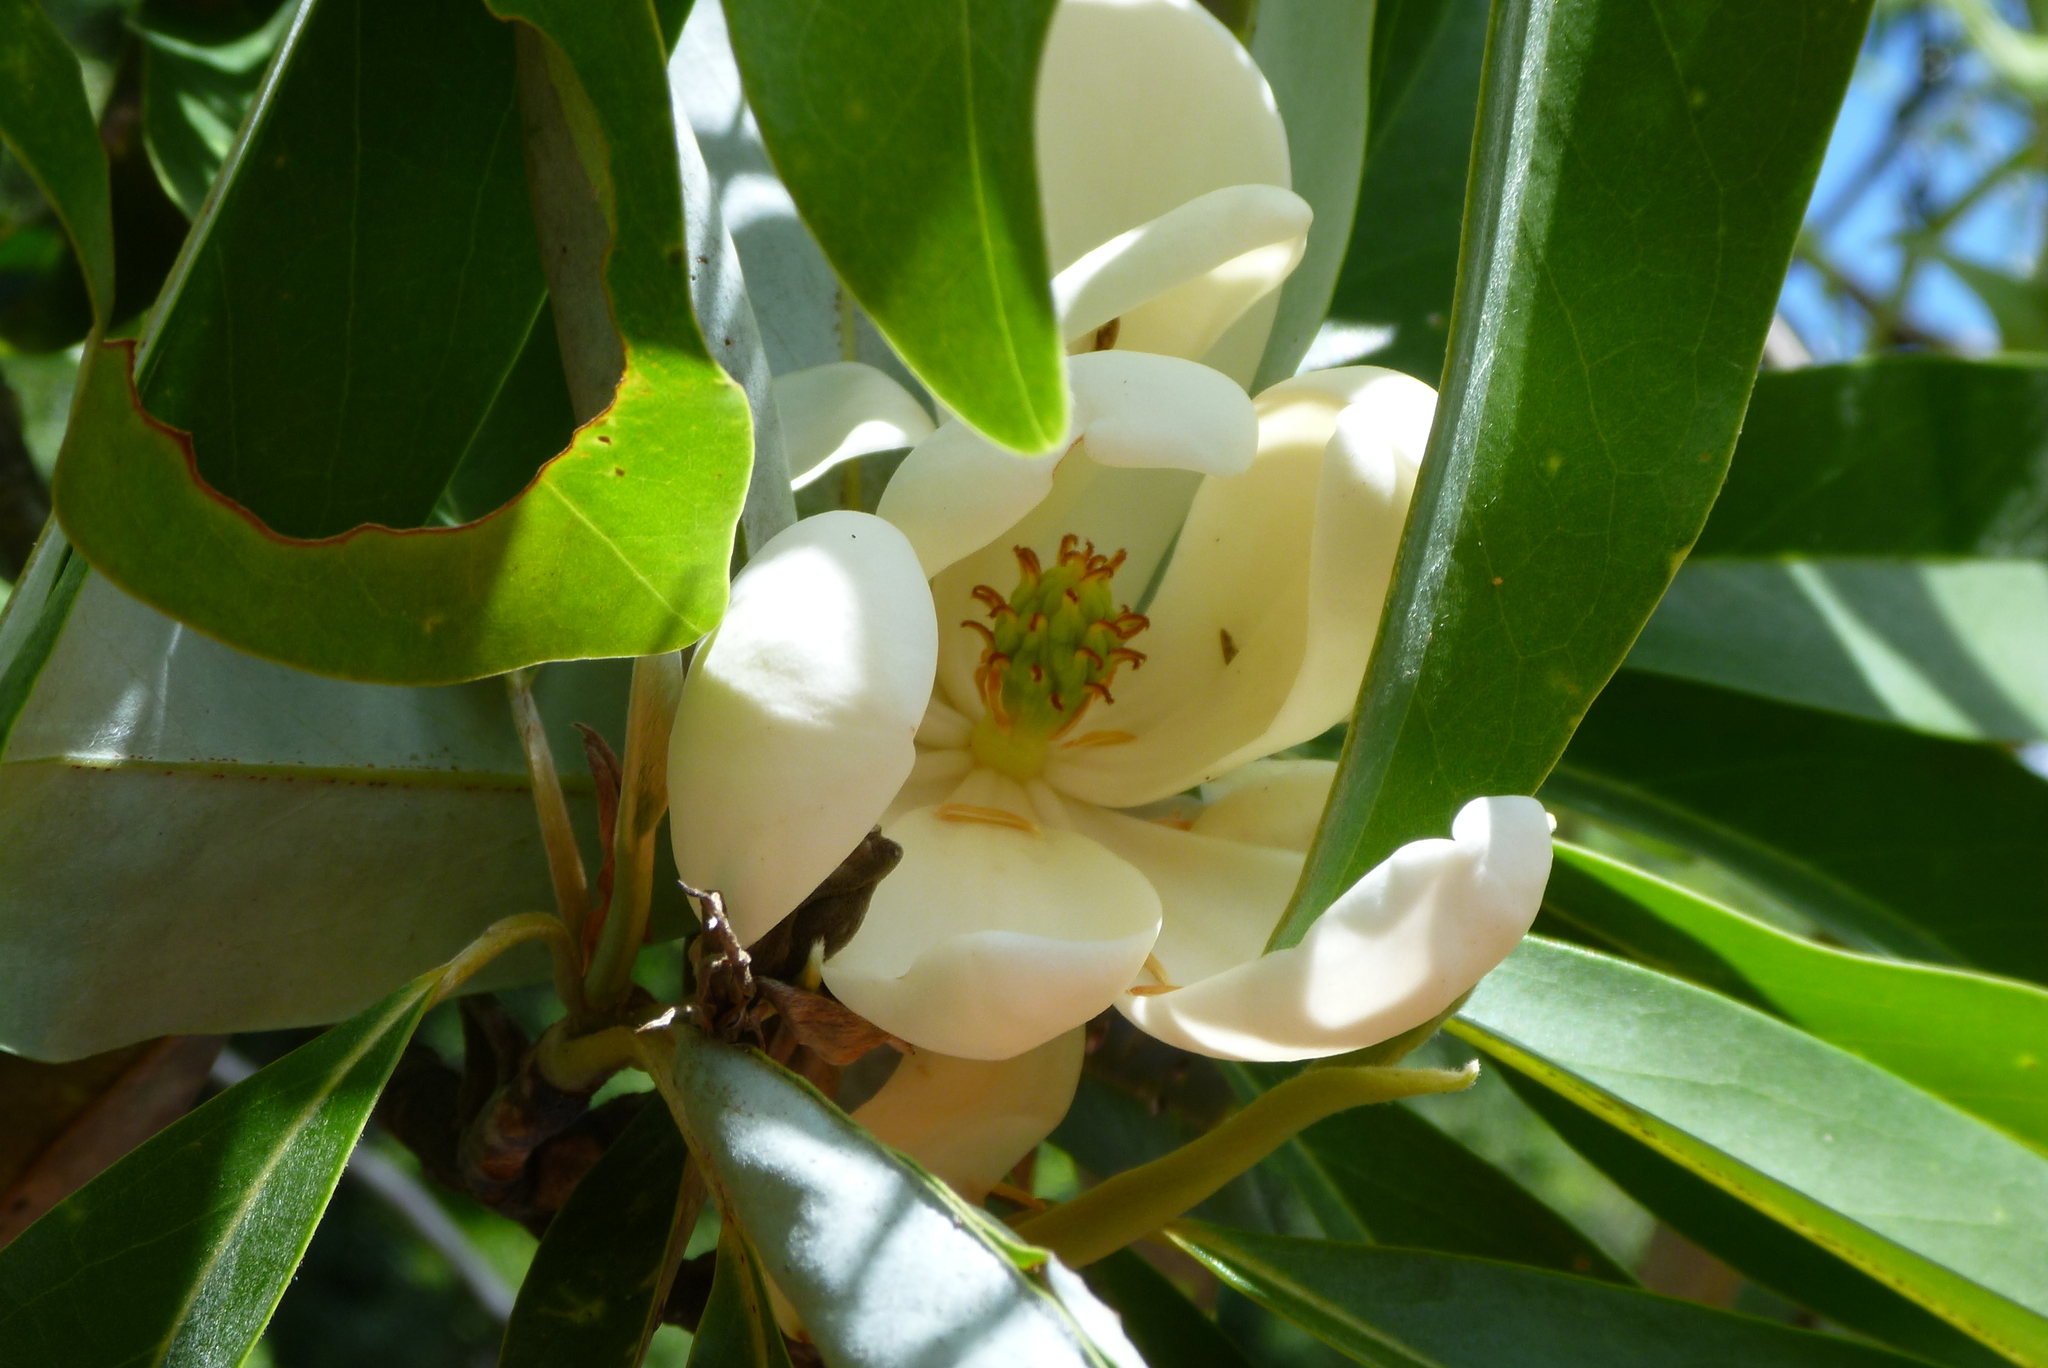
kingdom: Plantae
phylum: Tracheophyta
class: Magnoliopsida
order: Magnoliales
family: Magnoliaceae
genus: Magnolia
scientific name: Magnolia virginiana
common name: Swamp bay
